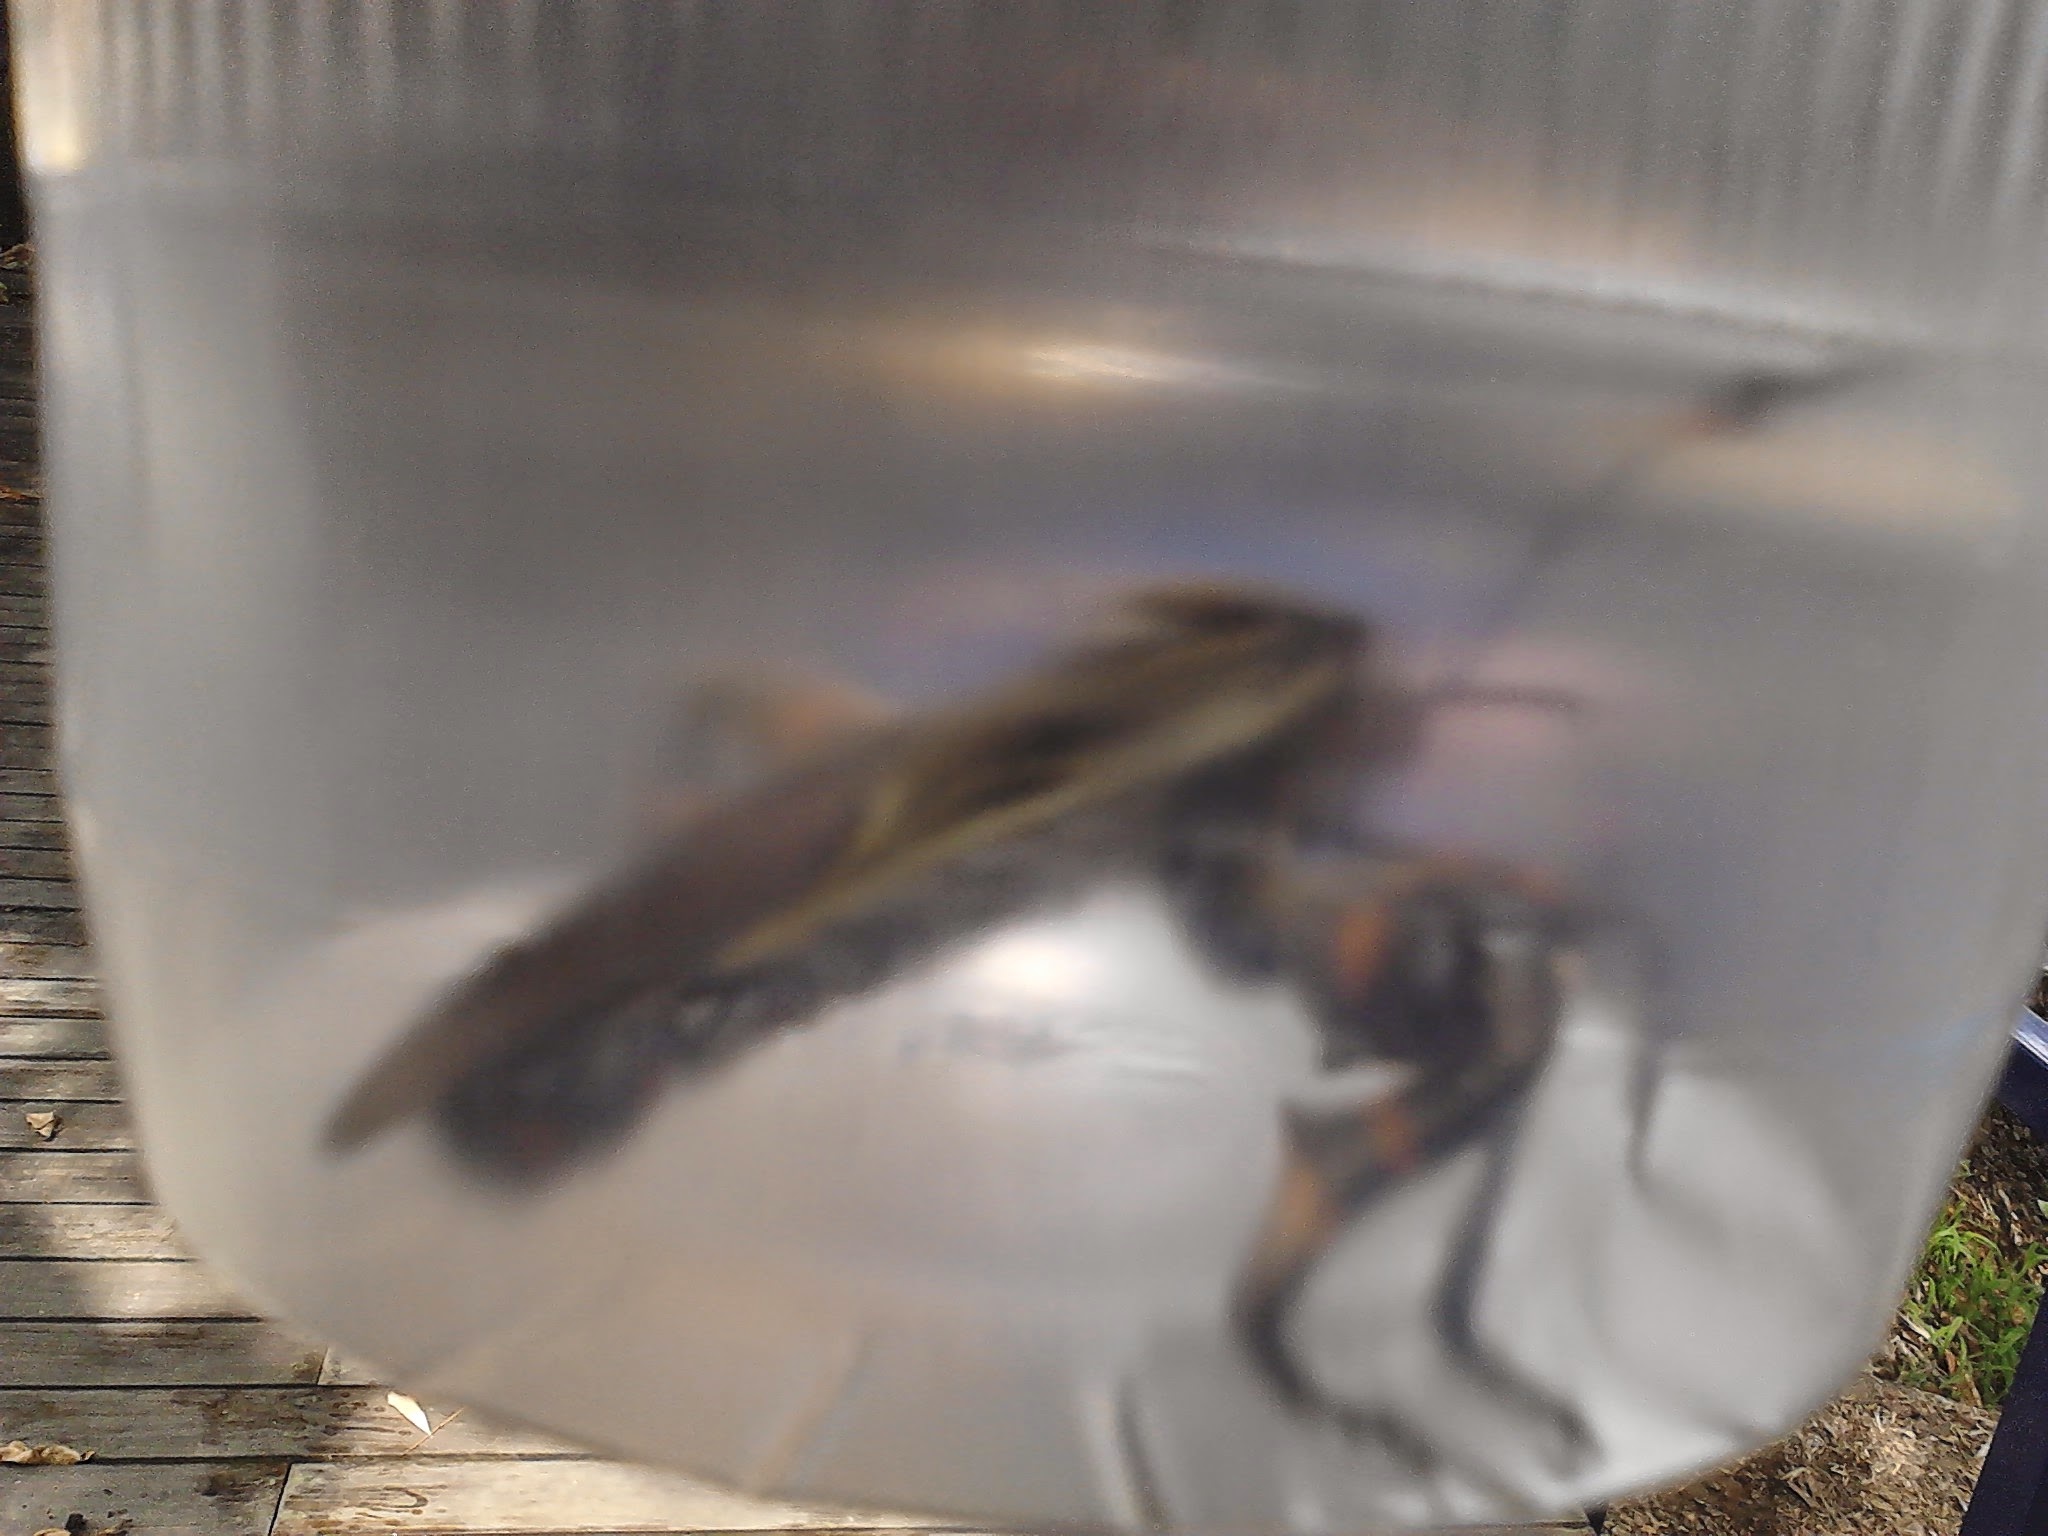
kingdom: Animalia
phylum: Arthropoda
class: Insecta
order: Hemiptera
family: Coreidae
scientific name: Coreidae
